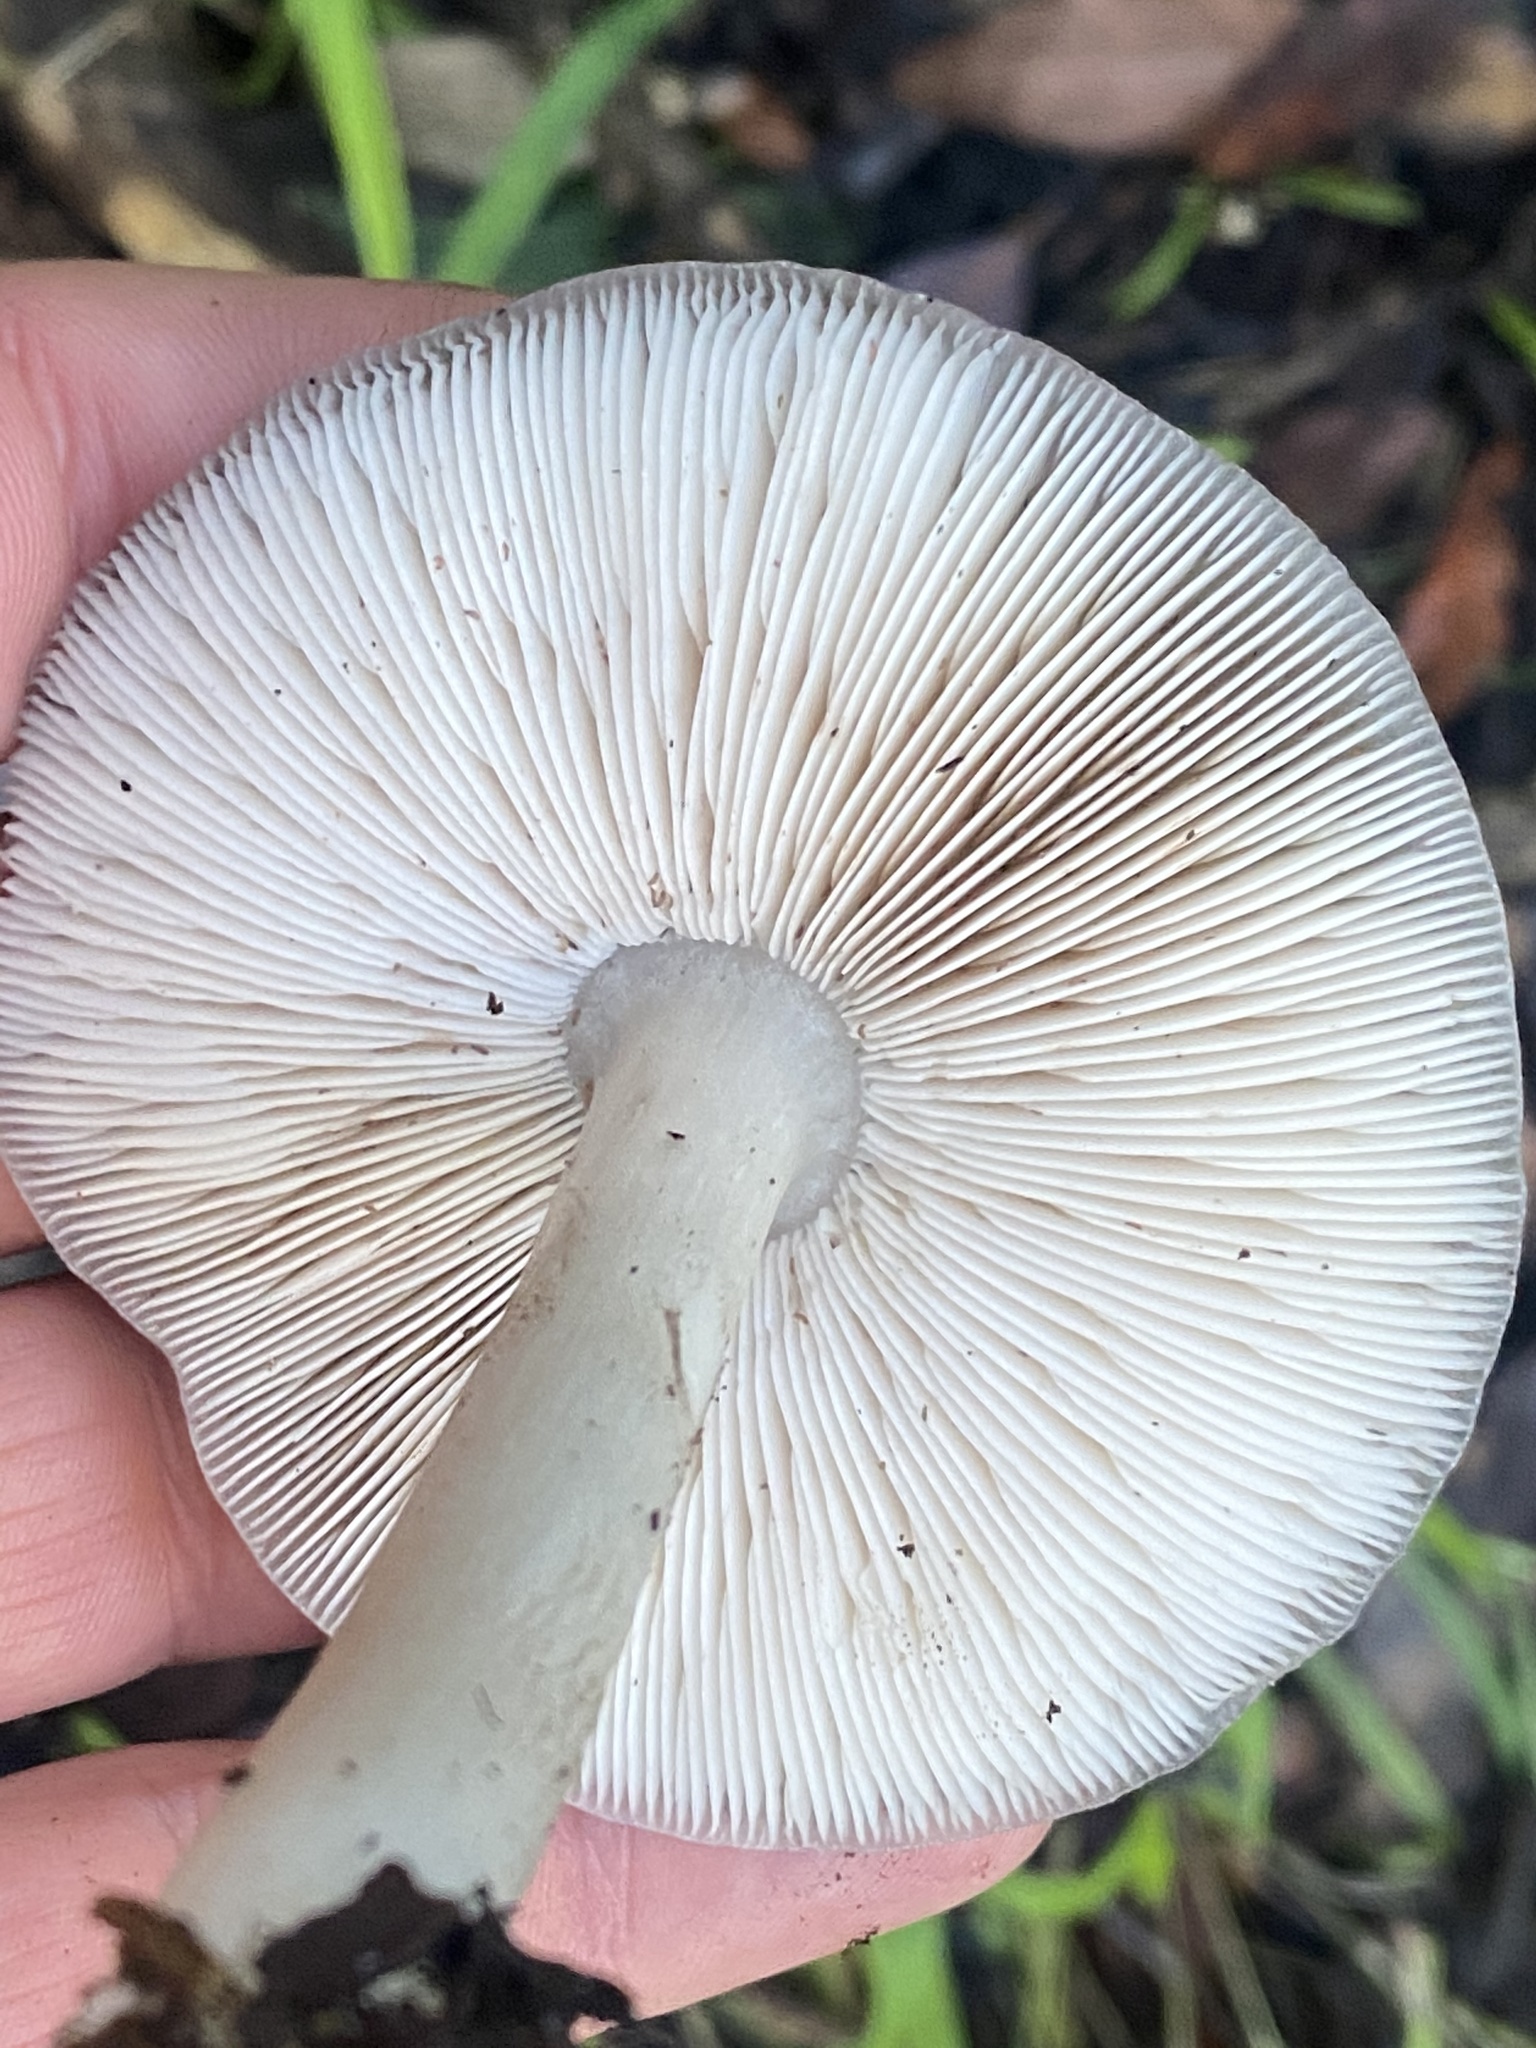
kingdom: Fungi
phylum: Basidiomycota
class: Agaricomycetes
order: Agaricales
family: Pluteaceae
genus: Volvopluteus
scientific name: Volvopluteus gloiocephalus
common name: Stubble rosegill
